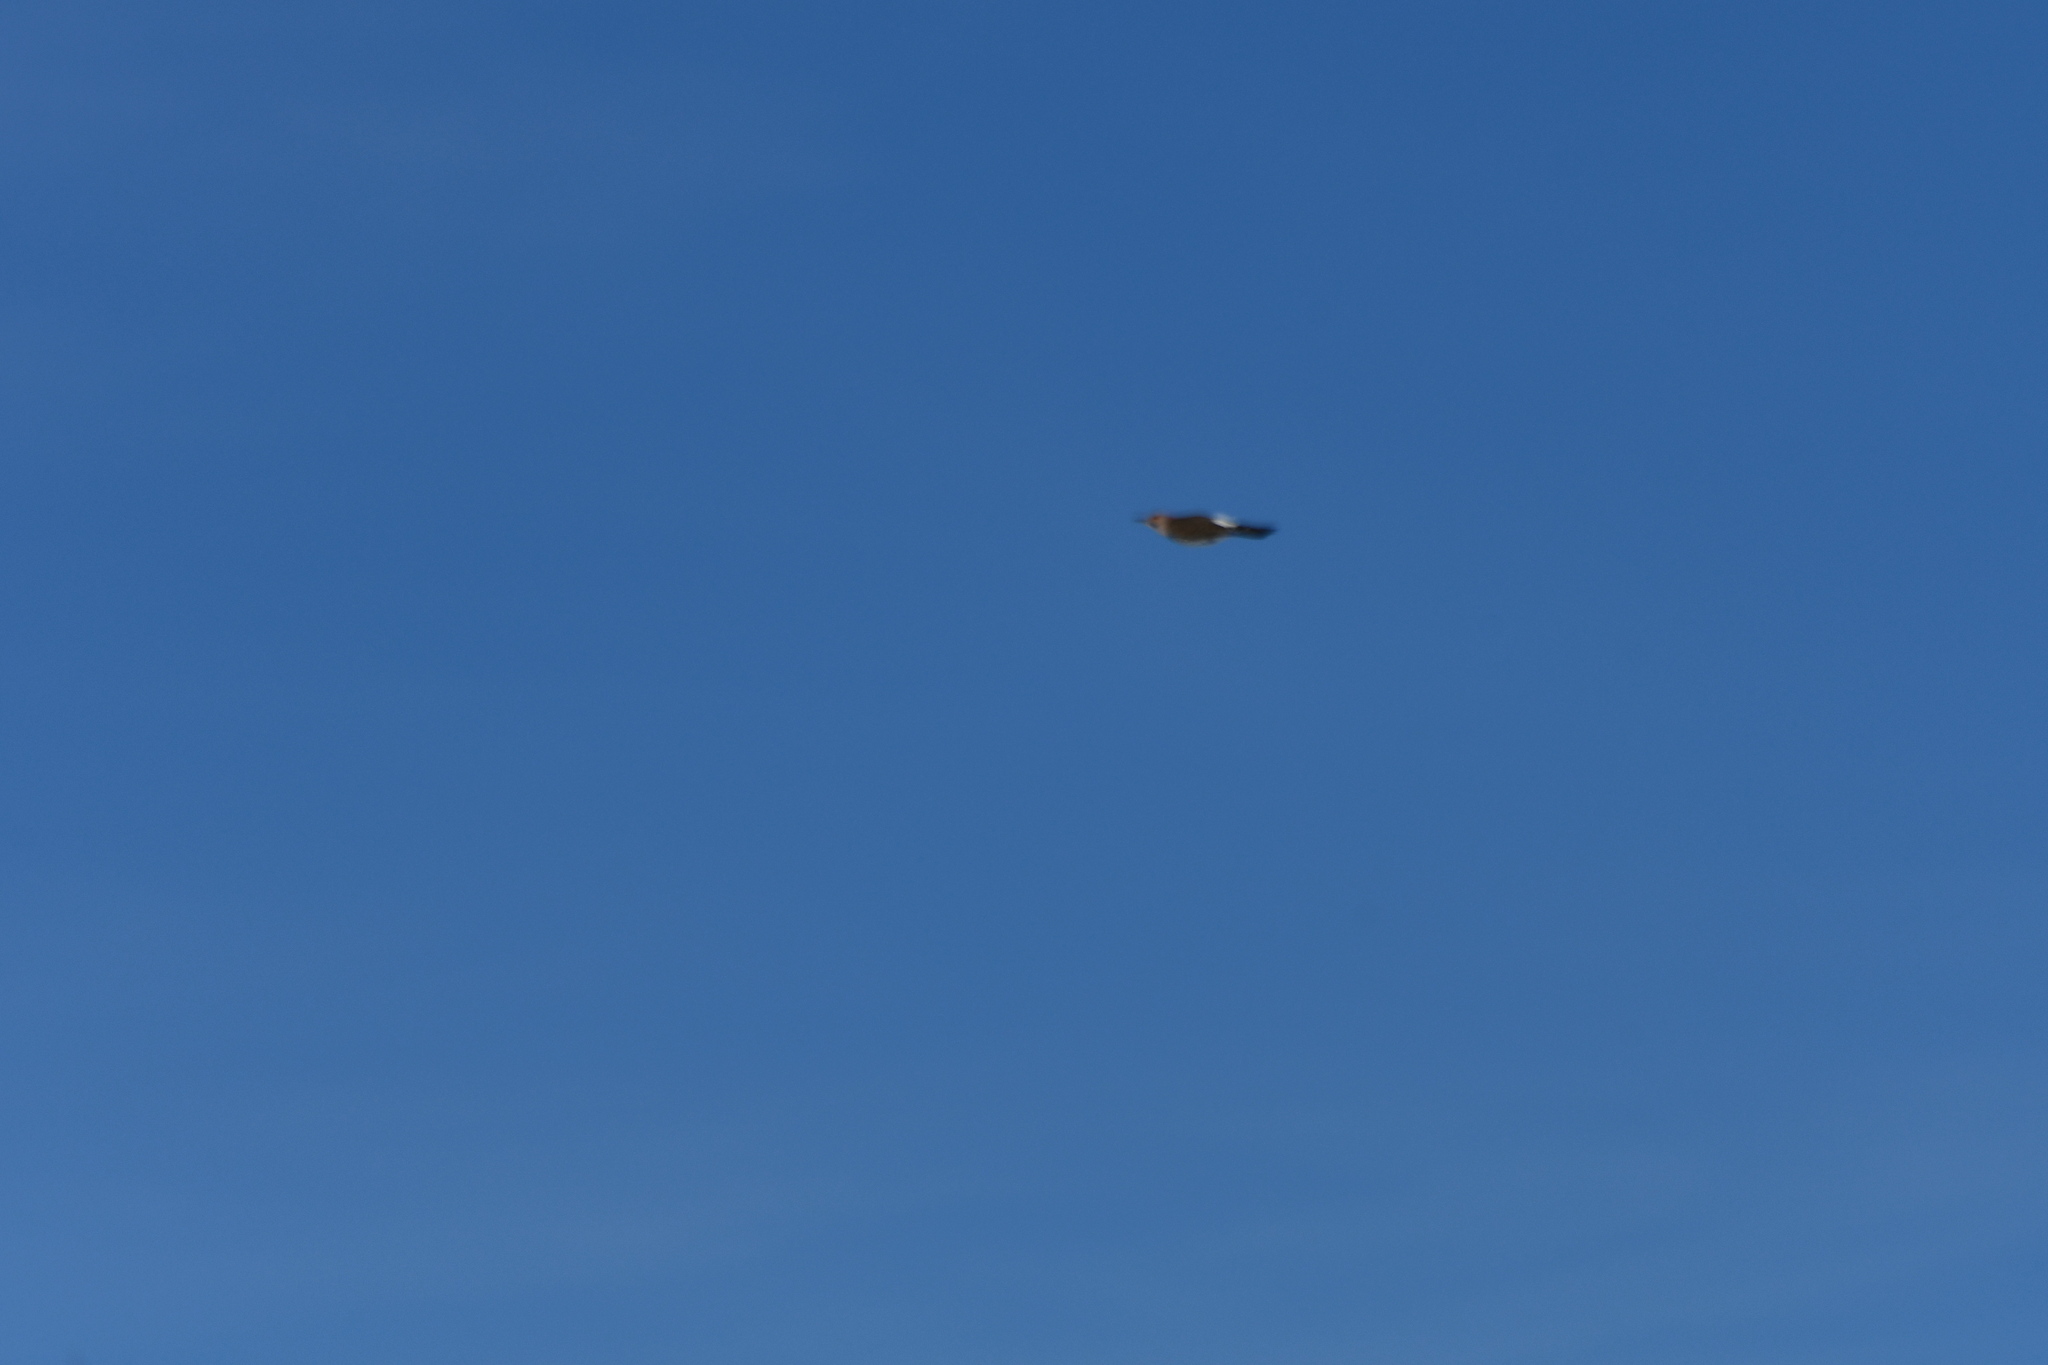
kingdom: Animalia
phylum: Chordata
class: Aves
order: Piciformes
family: Picidae
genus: Colaptes
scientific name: Colaptes auratus
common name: Northern flicker
